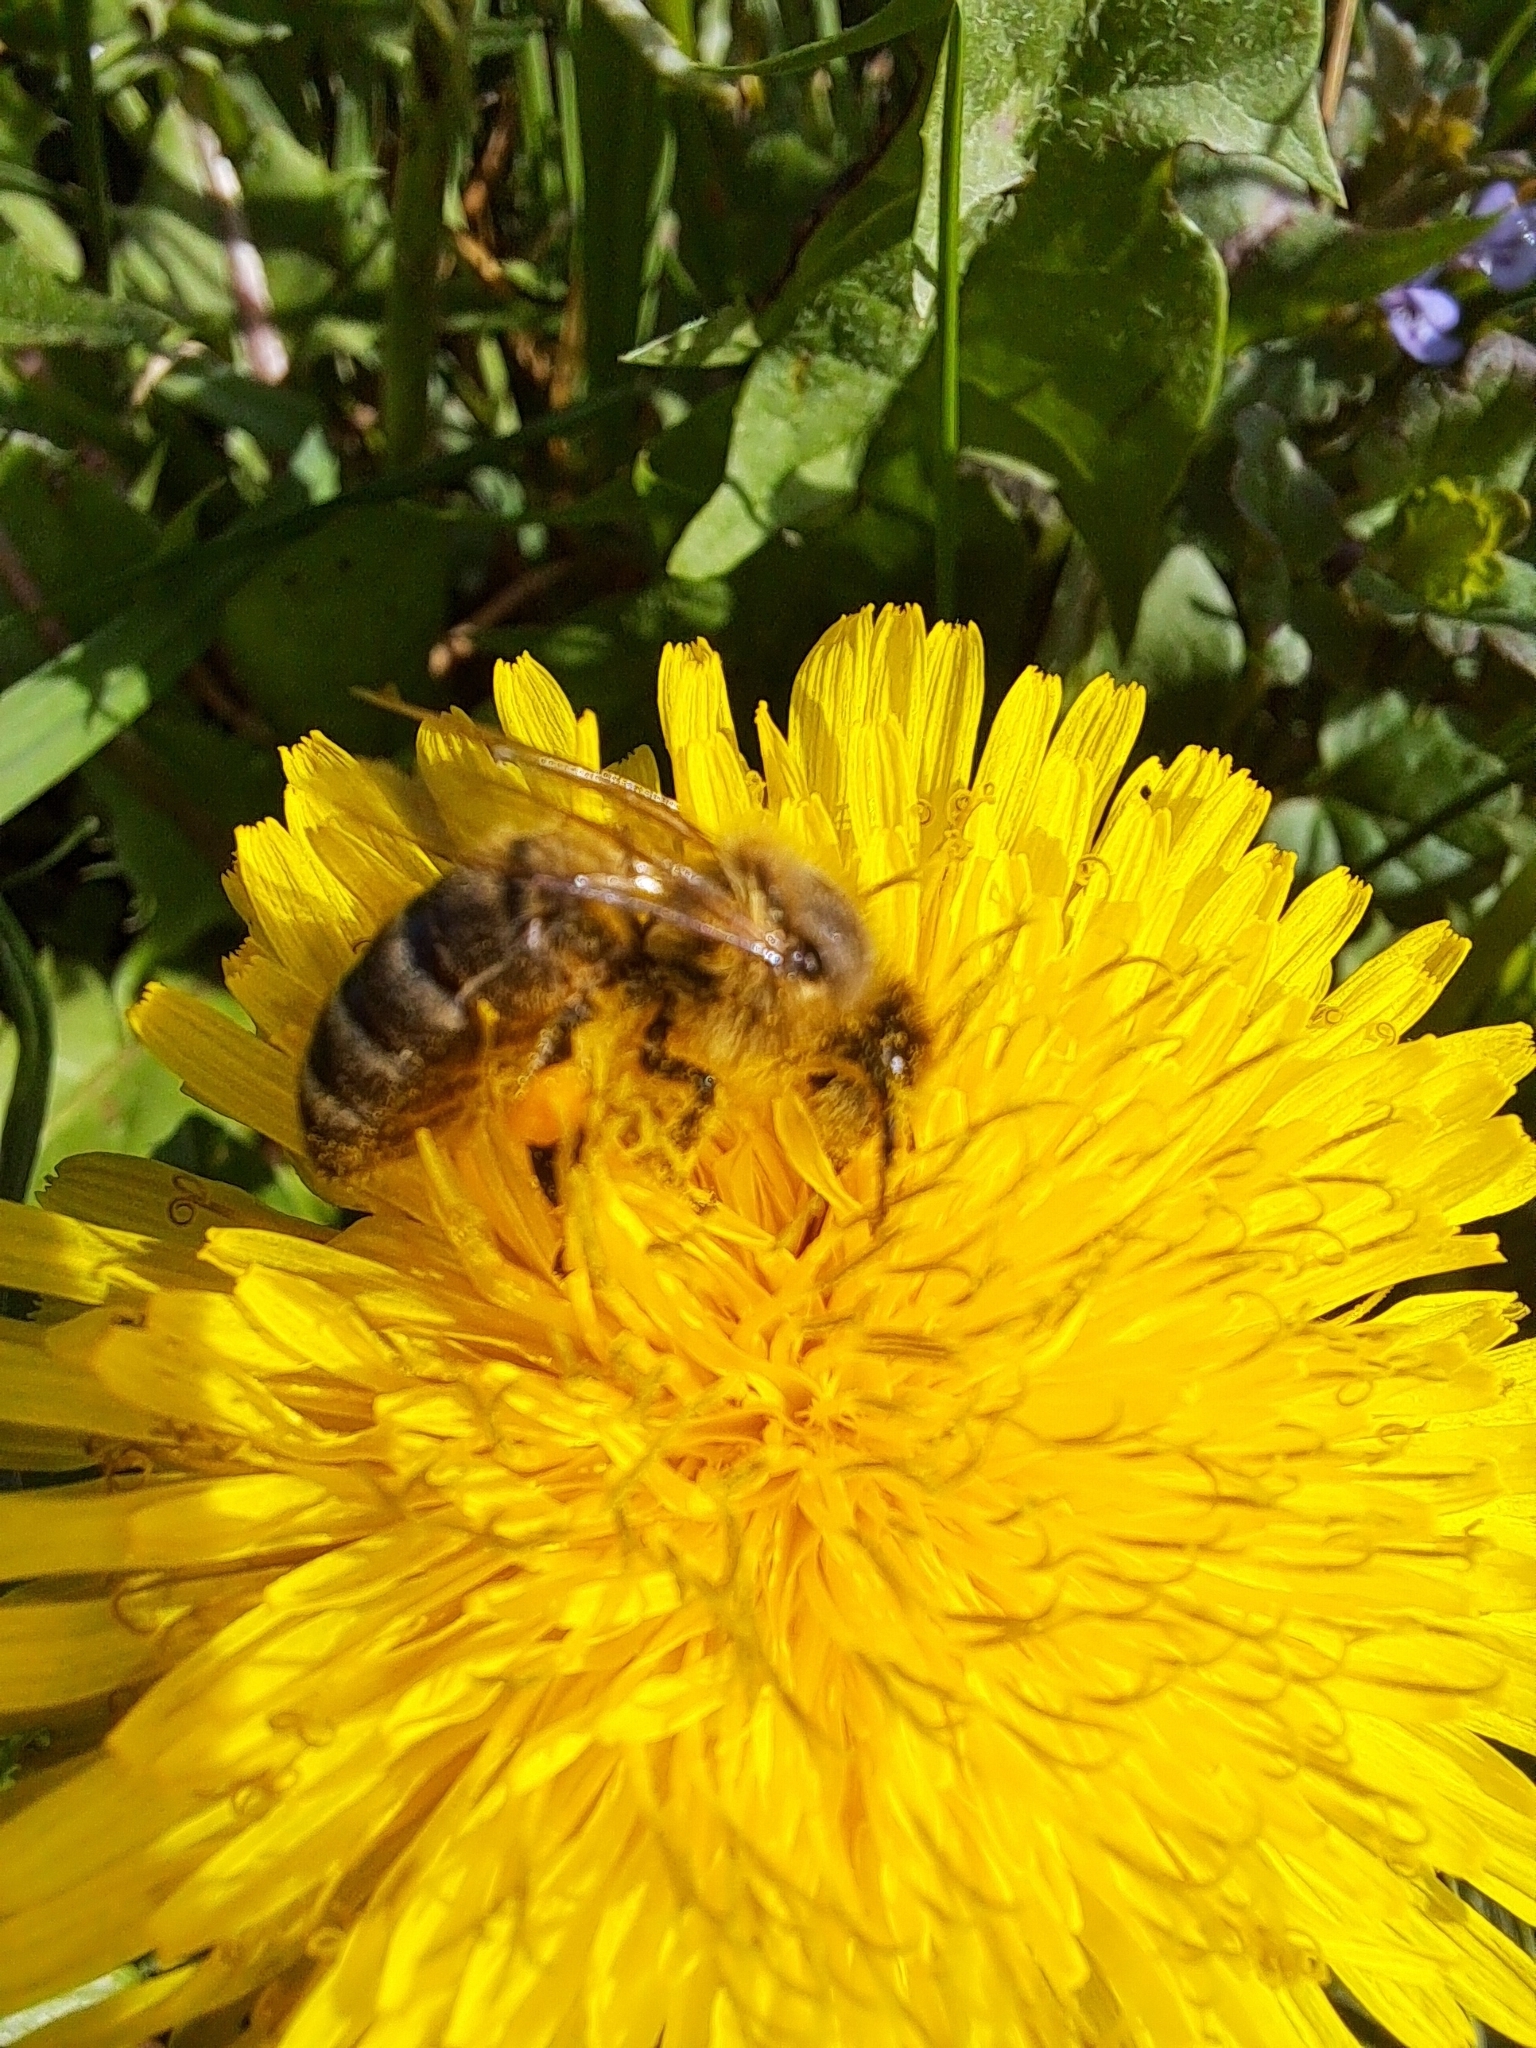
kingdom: Animalia
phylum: Arthropoda
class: Insecta
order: Hymenoptera
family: Apidae
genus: Apis
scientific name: Apis mellifera
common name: Honey bee
